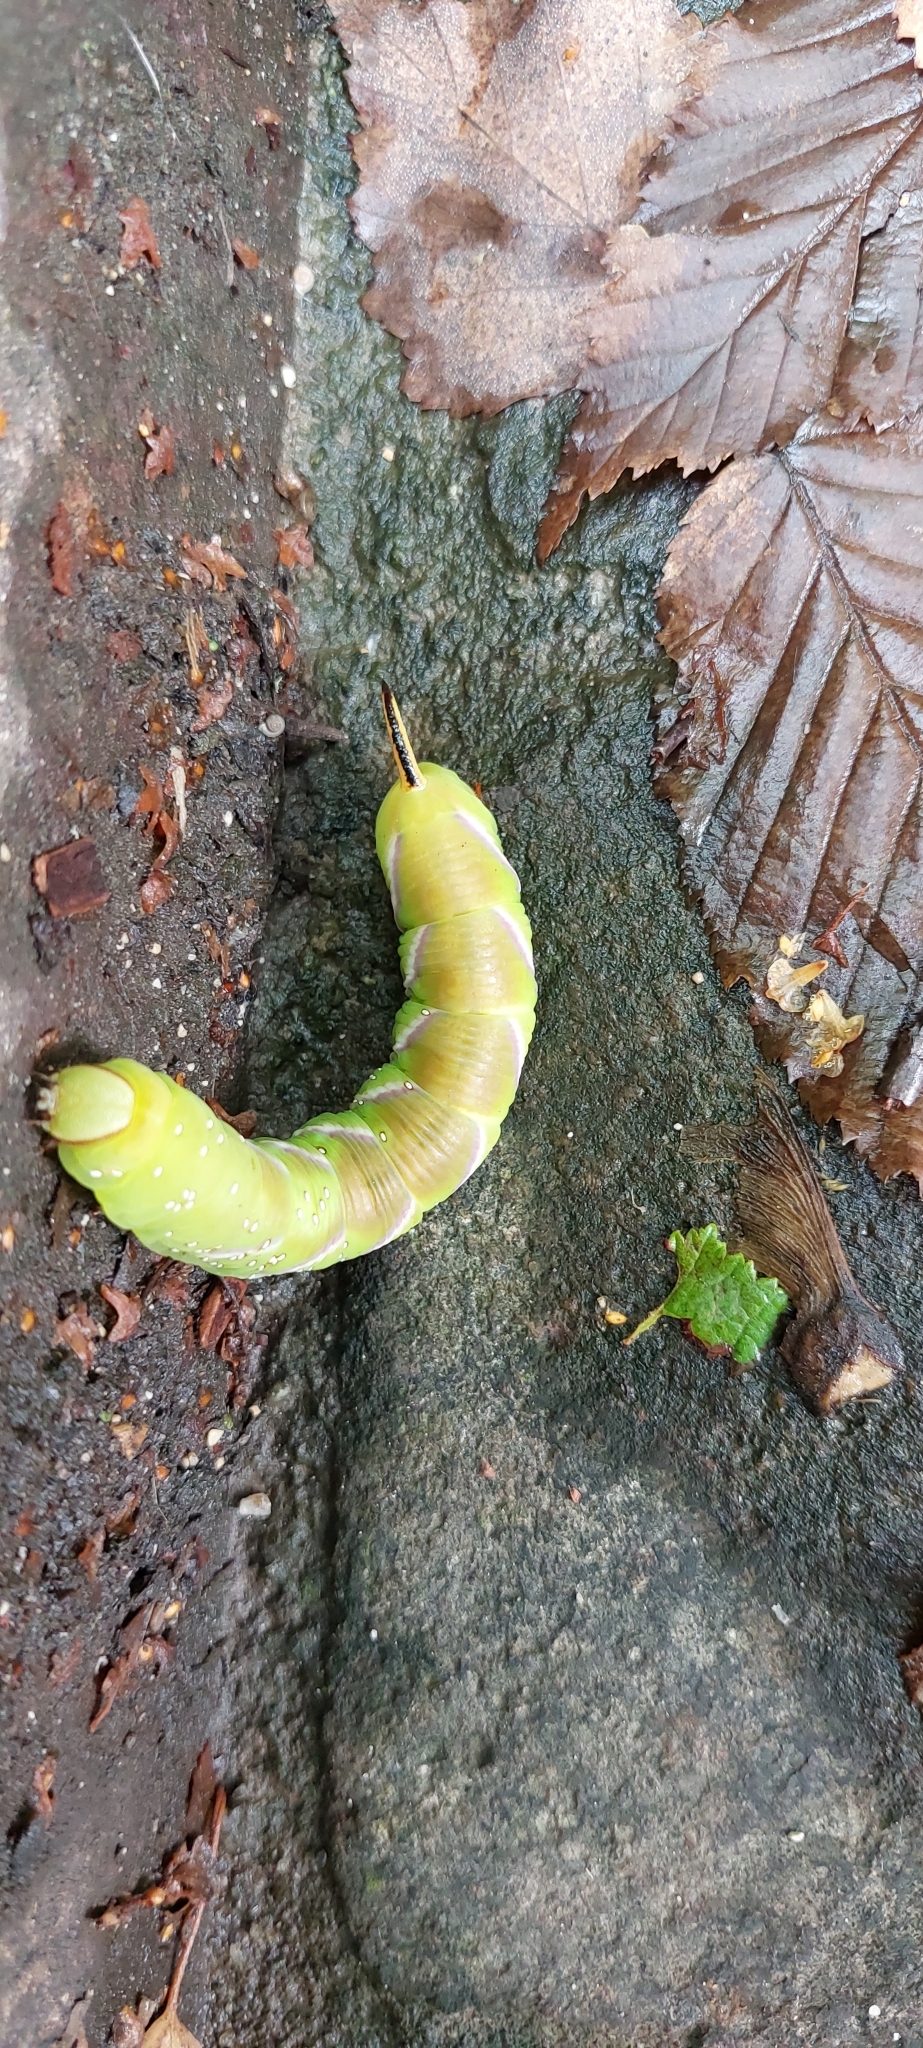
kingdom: Animalia
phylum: Arthropoda
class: Insecta
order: Lepidoptera
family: Sphingidae
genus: Sphinx
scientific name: Sphinx ligustri
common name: Privet hawk-moth
